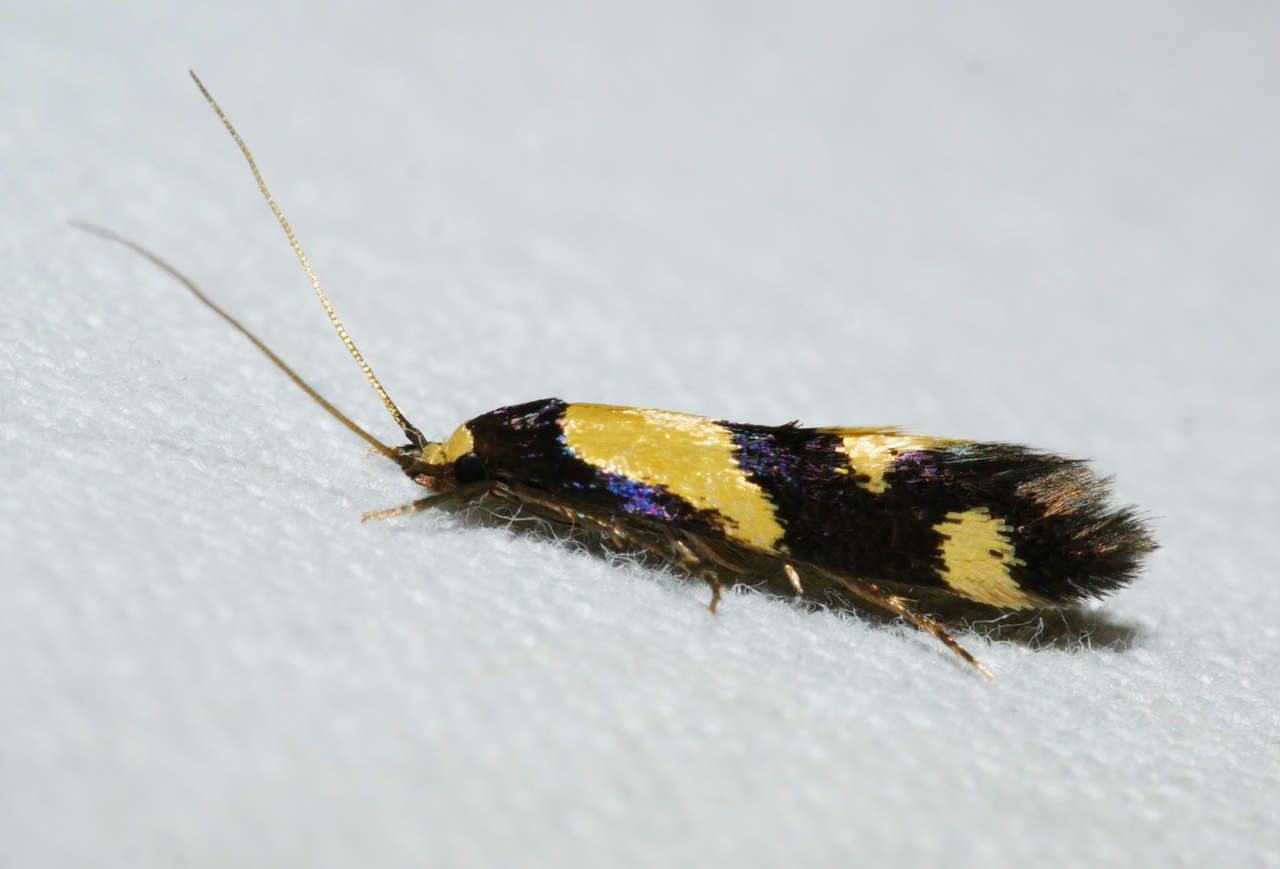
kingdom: Animalia
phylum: Arthropoda
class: Insecta
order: Lepidoptera
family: Tineidae
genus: Opogona
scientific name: Opogona comptella
